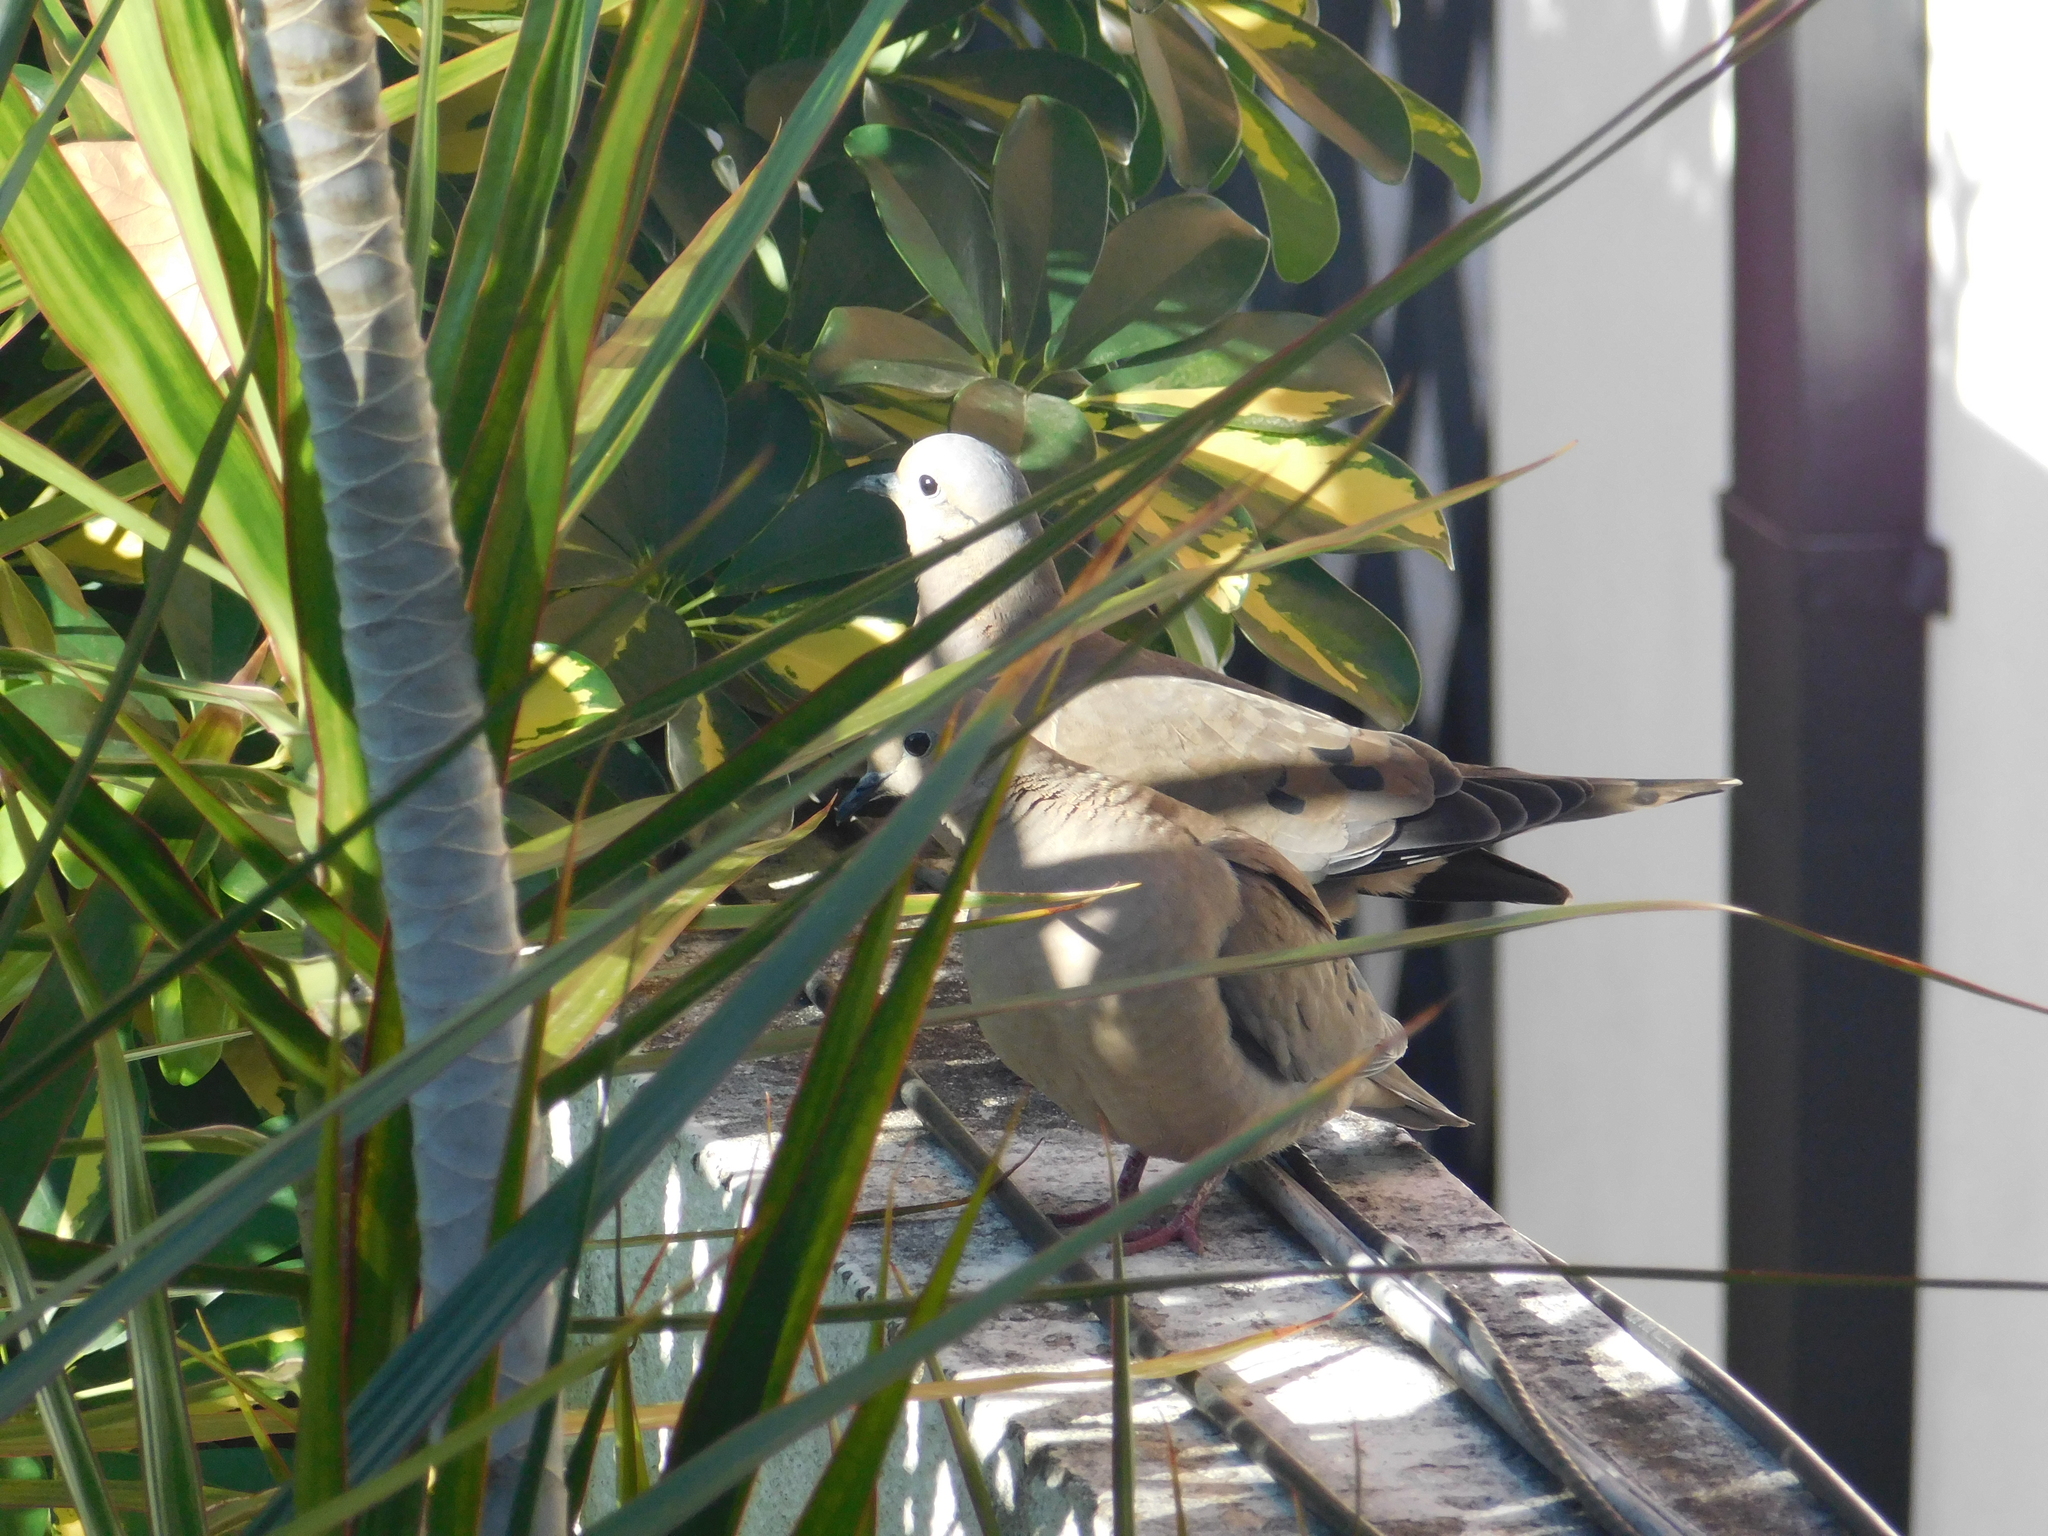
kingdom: Animalia
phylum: Chordata
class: Aves
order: Columbiformes
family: Columbidae
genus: Zenaida
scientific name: Zenaida auriculata
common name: Eared dove
